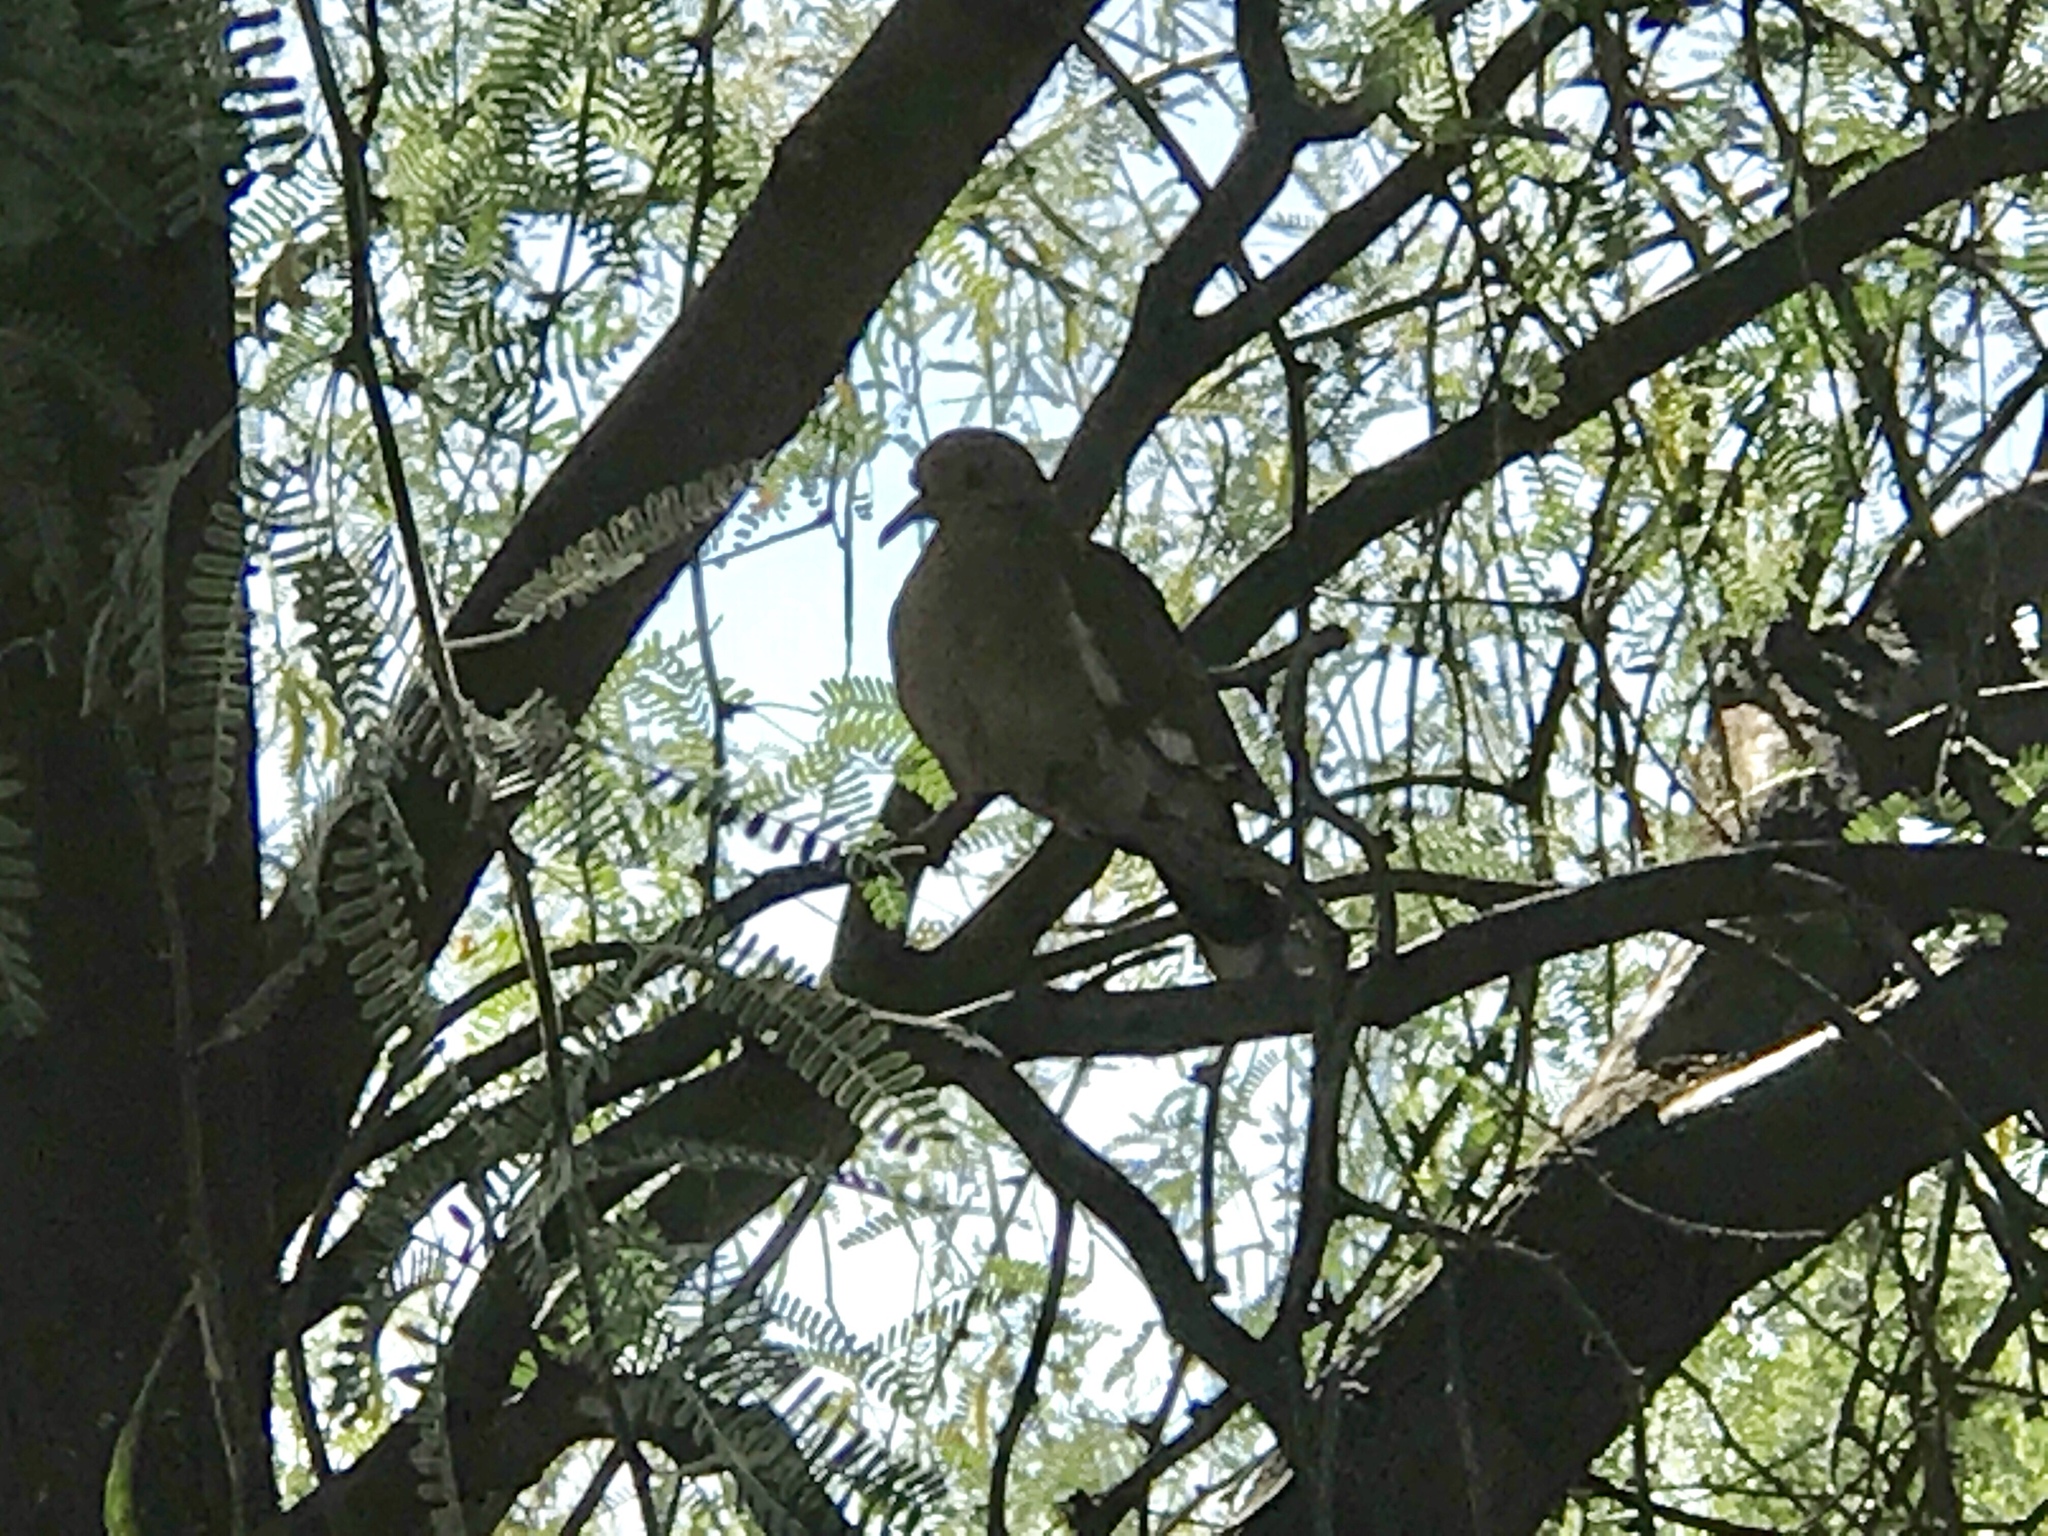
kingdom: Animalia
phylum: Chordata
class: Aves
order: Columbiformes
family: Columbidae
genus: Zenaida
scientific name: Zenaida asiatica
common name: White-winged dove
